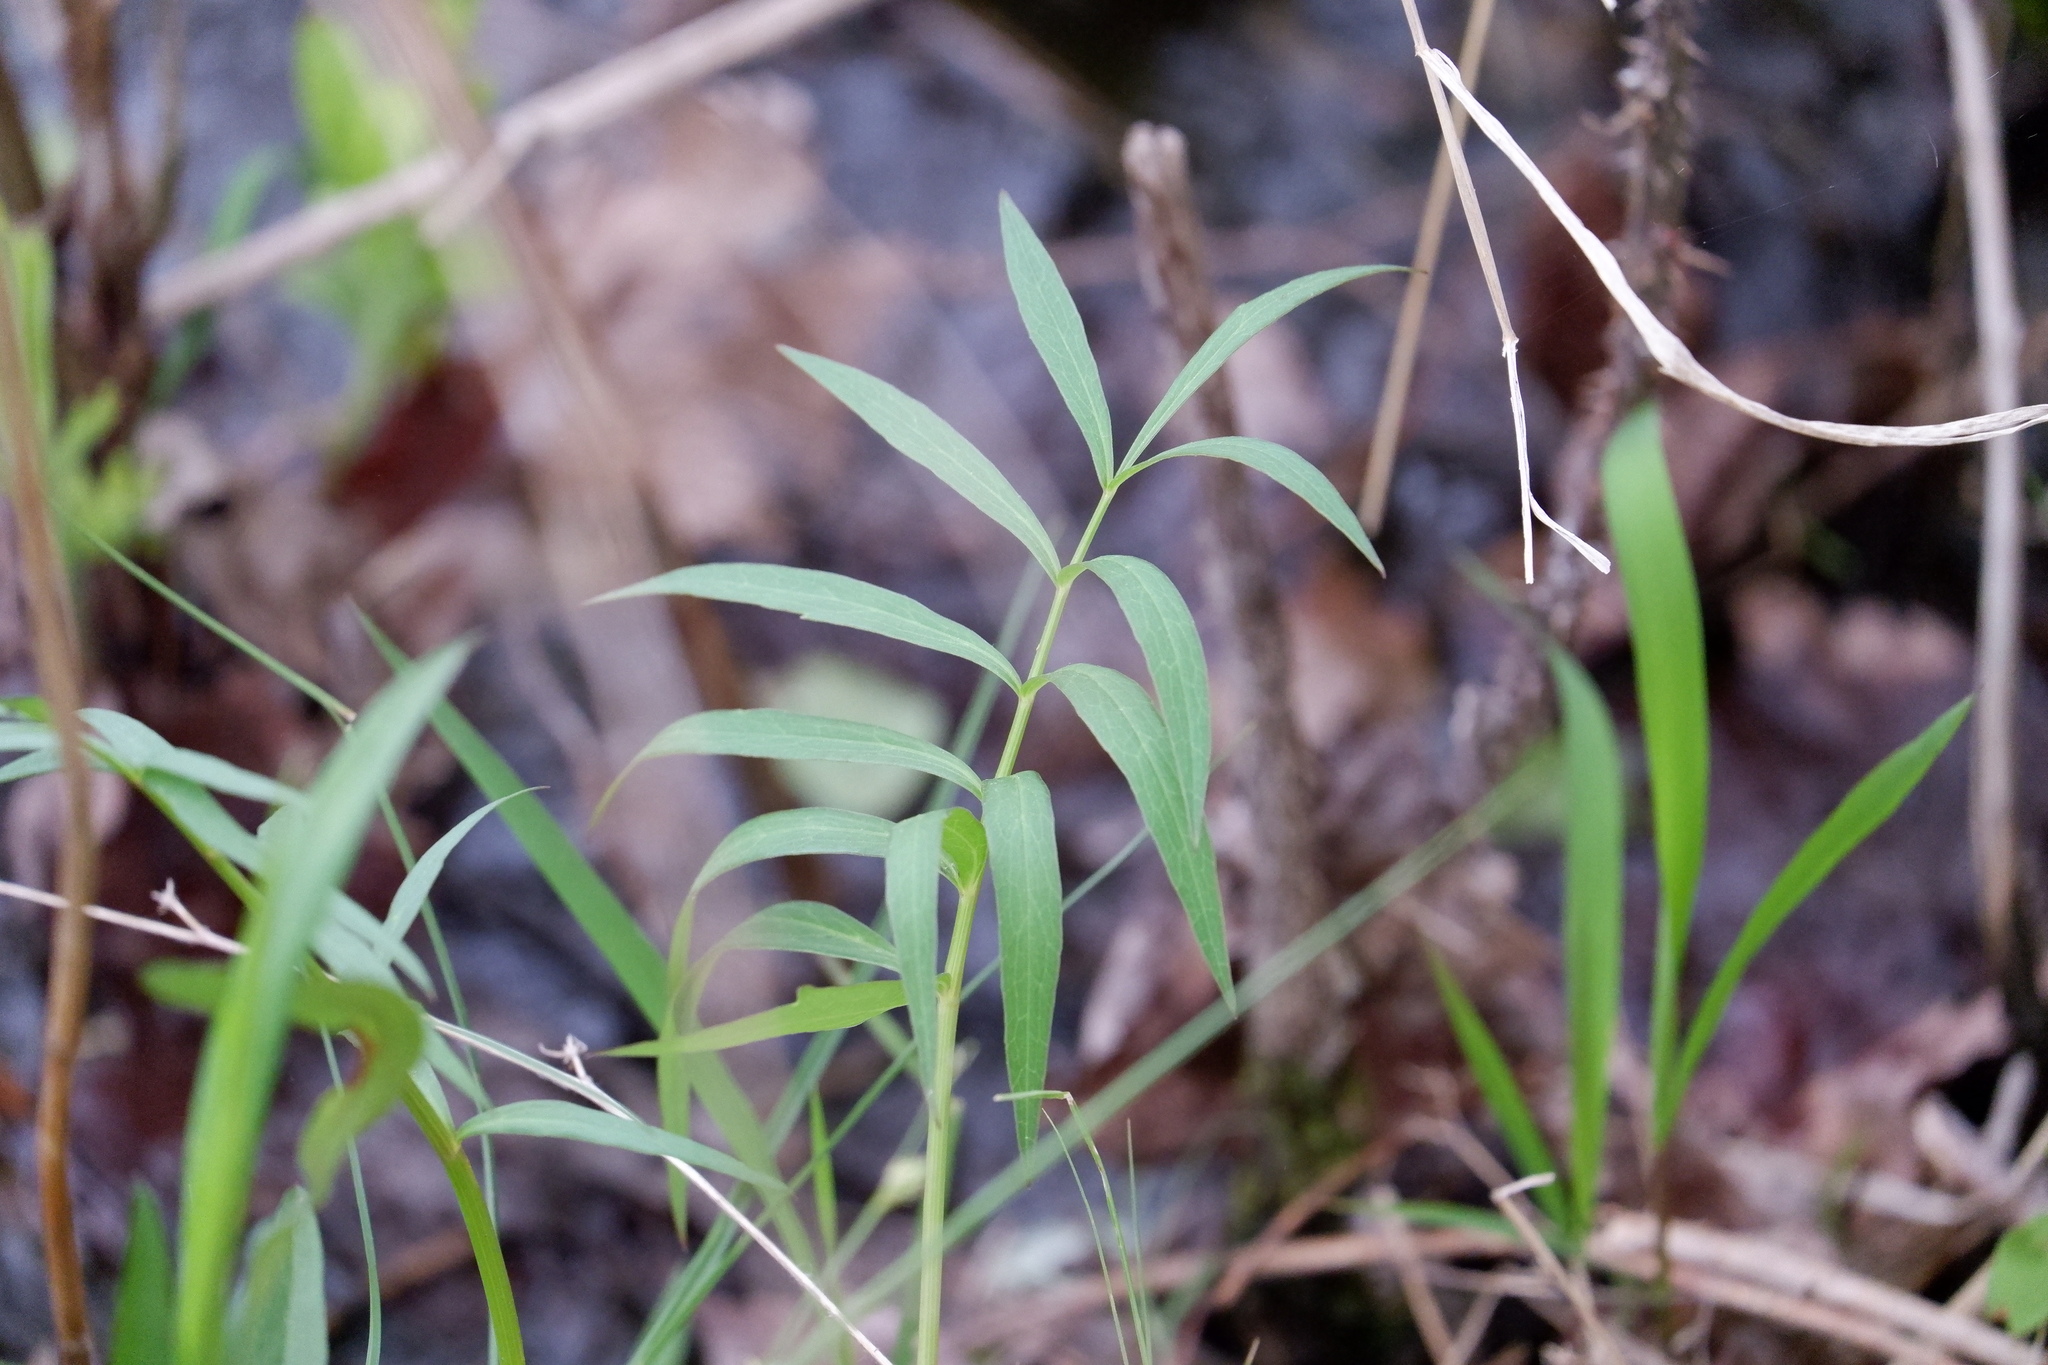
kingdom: Plantae
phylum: Tracheophyta
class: Magnoliopsida
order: Apiales
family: Apiaceae
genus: Oxypolis
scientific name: Oxypolis rigidior
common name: Cowbane
